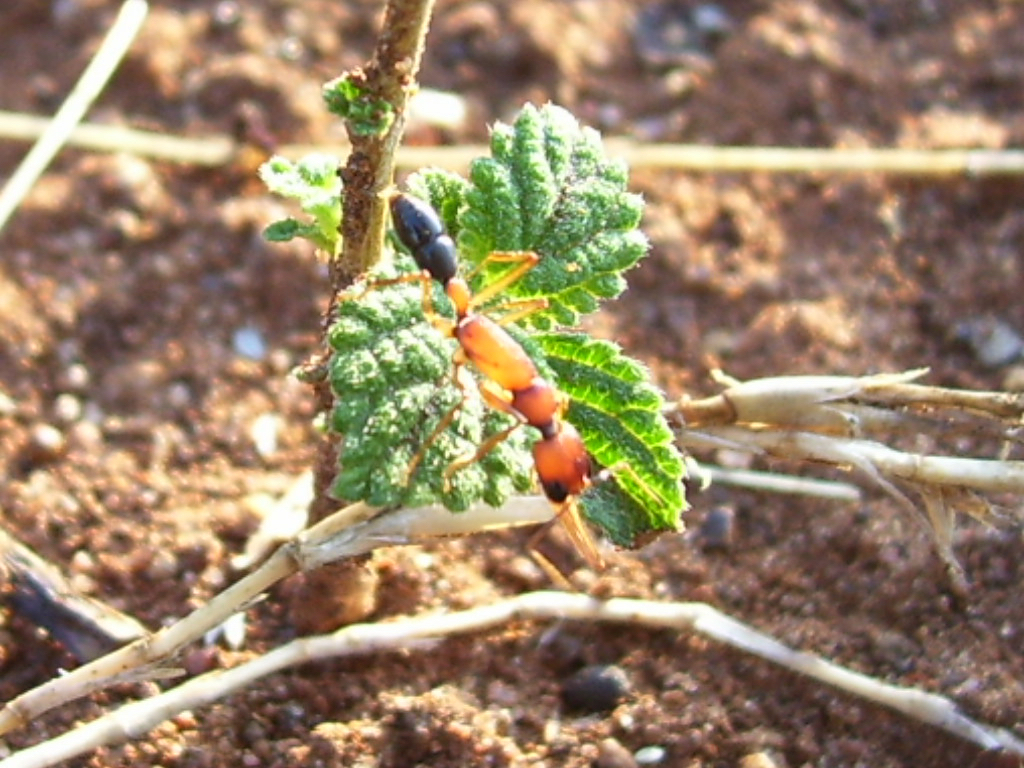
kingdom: Animalia
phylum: Arthropoda
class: Insecta
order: Hymenoptera
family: Formicidae
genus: Harpegnathos
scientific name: Harpegnathos saltator
